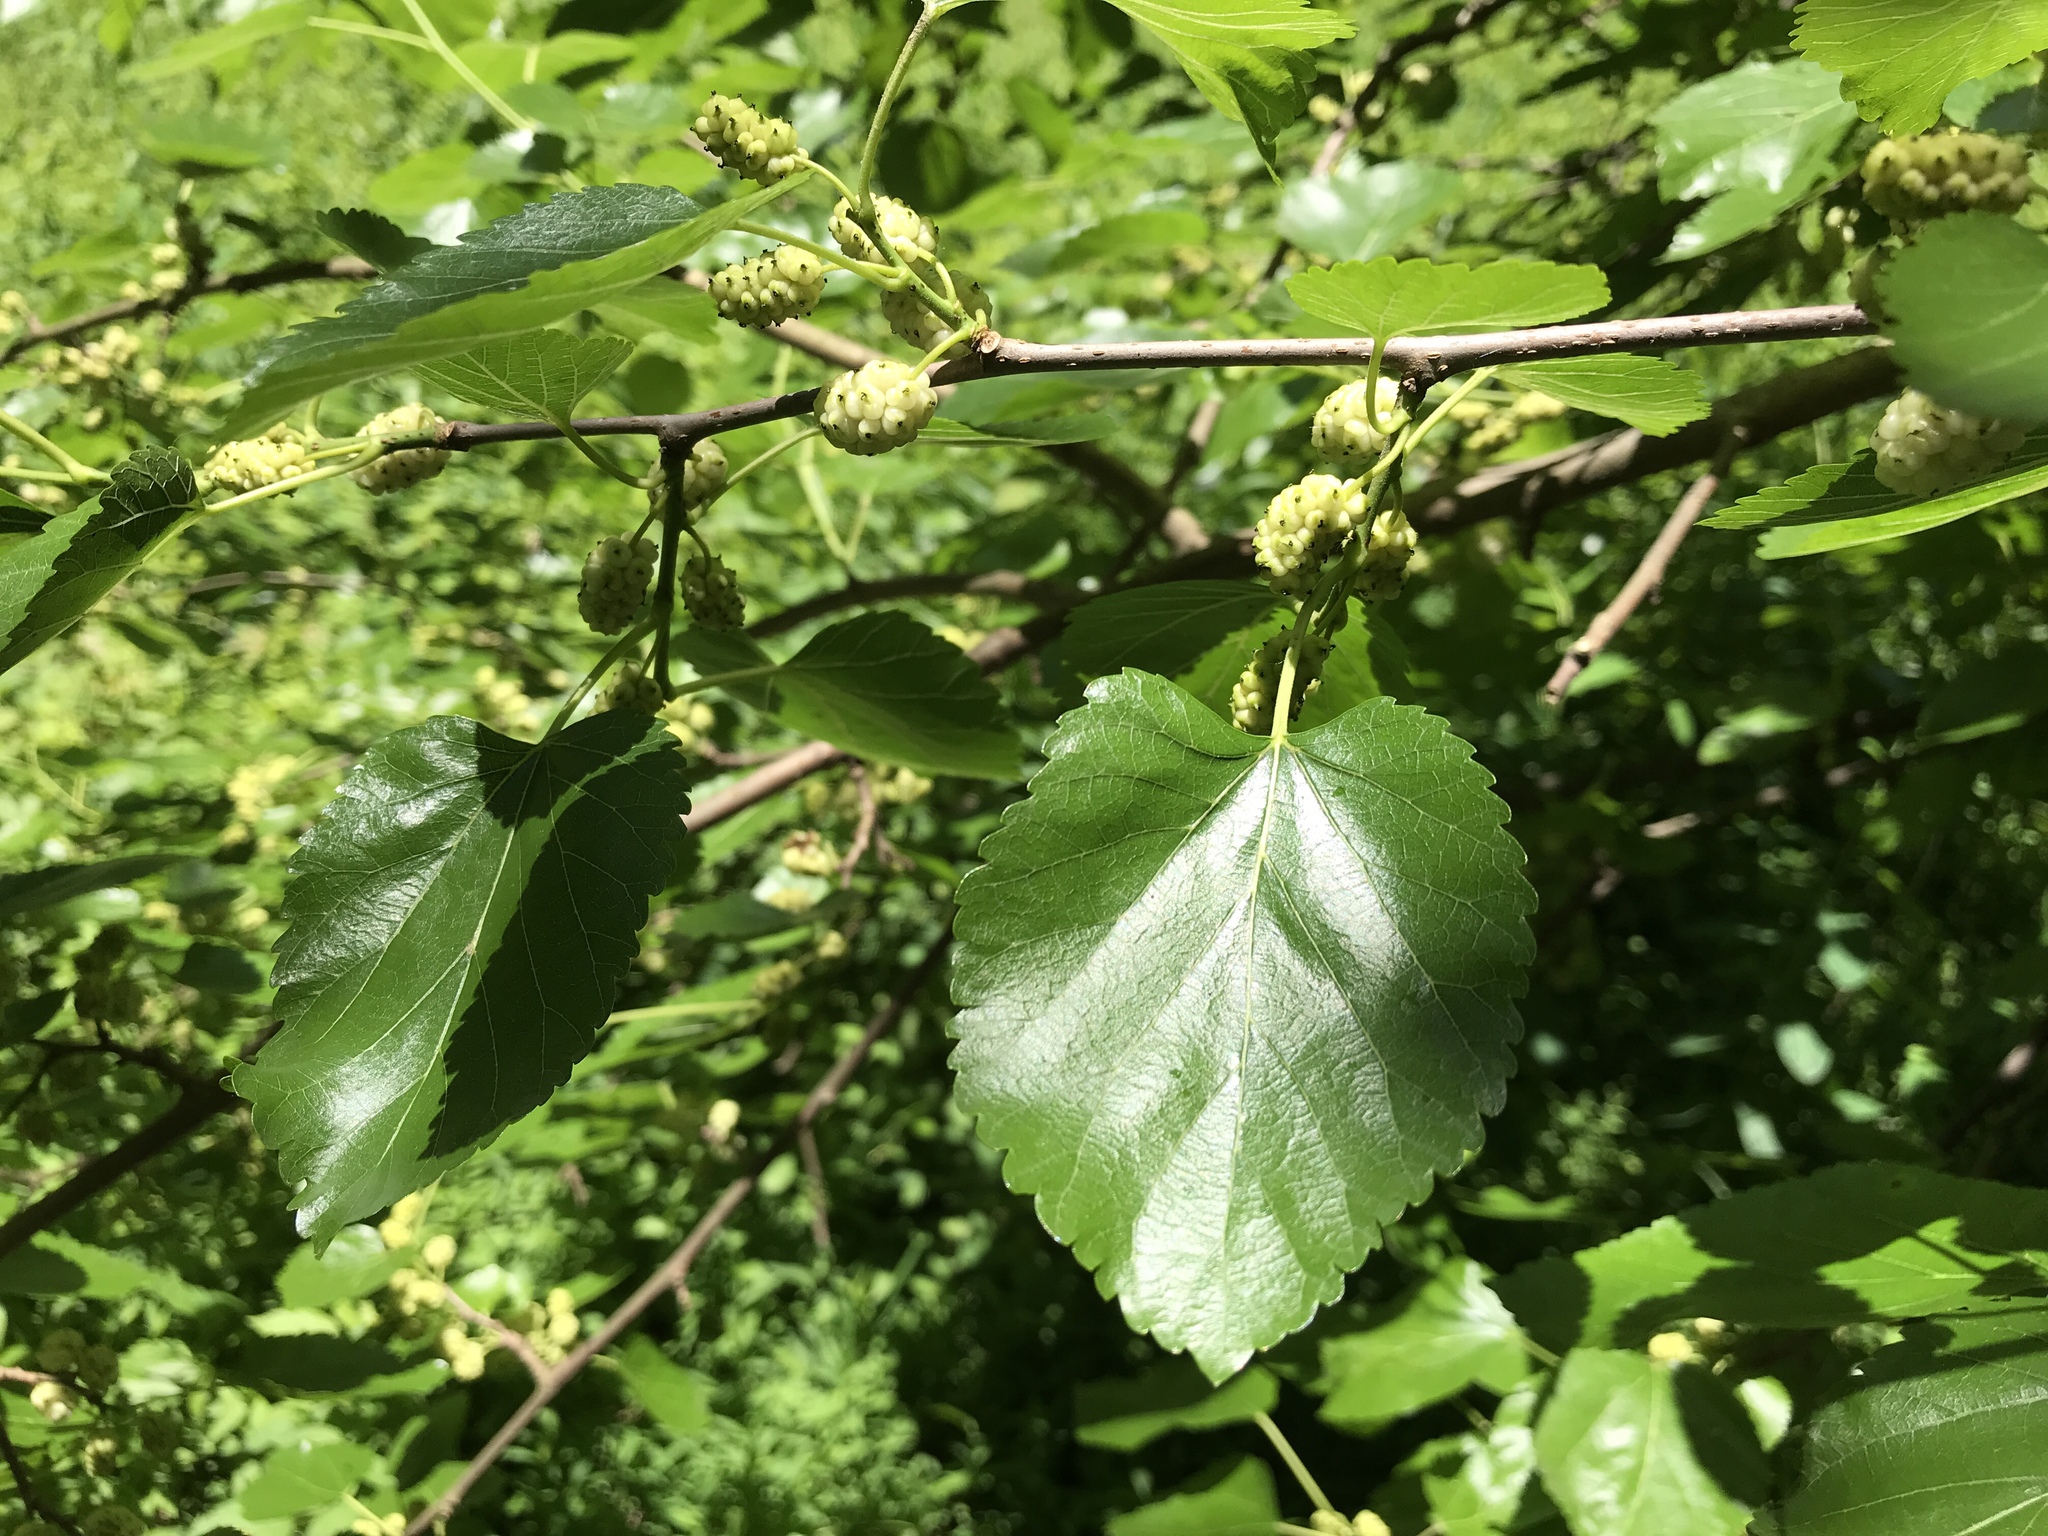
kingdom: Plantae
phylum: Tracheophyta
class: Magnoliopsida
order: Rosales
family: Moraceae
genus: Morus
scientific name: Morus alba
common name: White mulberry
